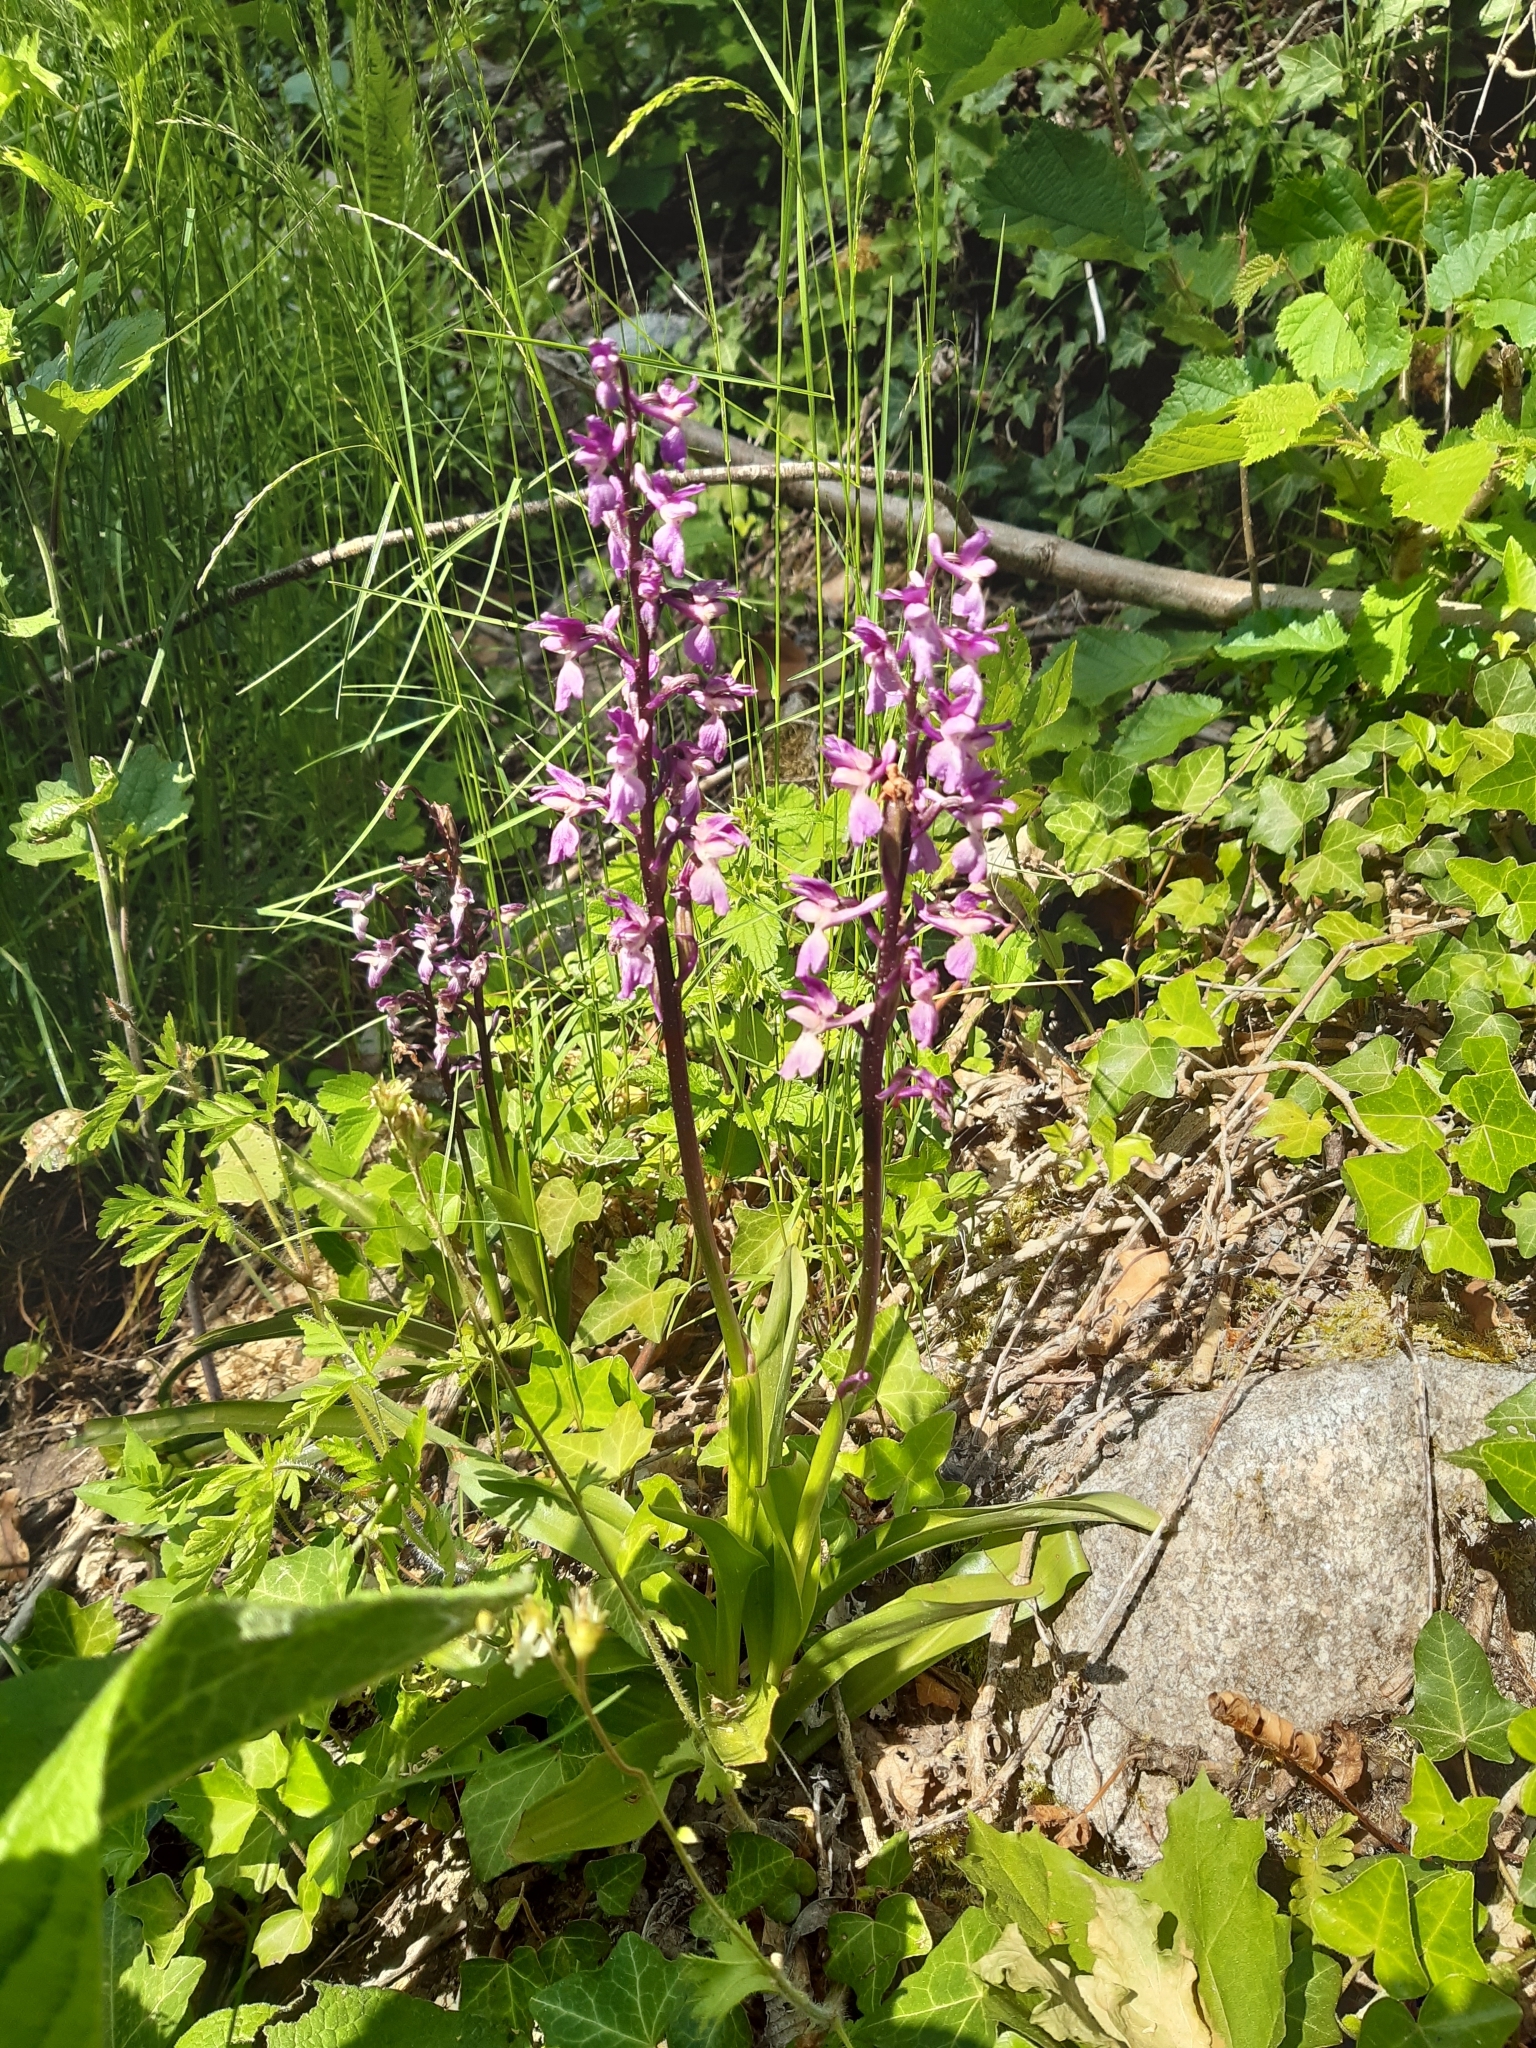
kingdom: Plantae
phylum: Tracheophyta
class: Liliopsida
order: Asparagales
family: Orchidaceae
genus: Orchis
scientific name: Orchis mascula
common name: Early-purple orchid
